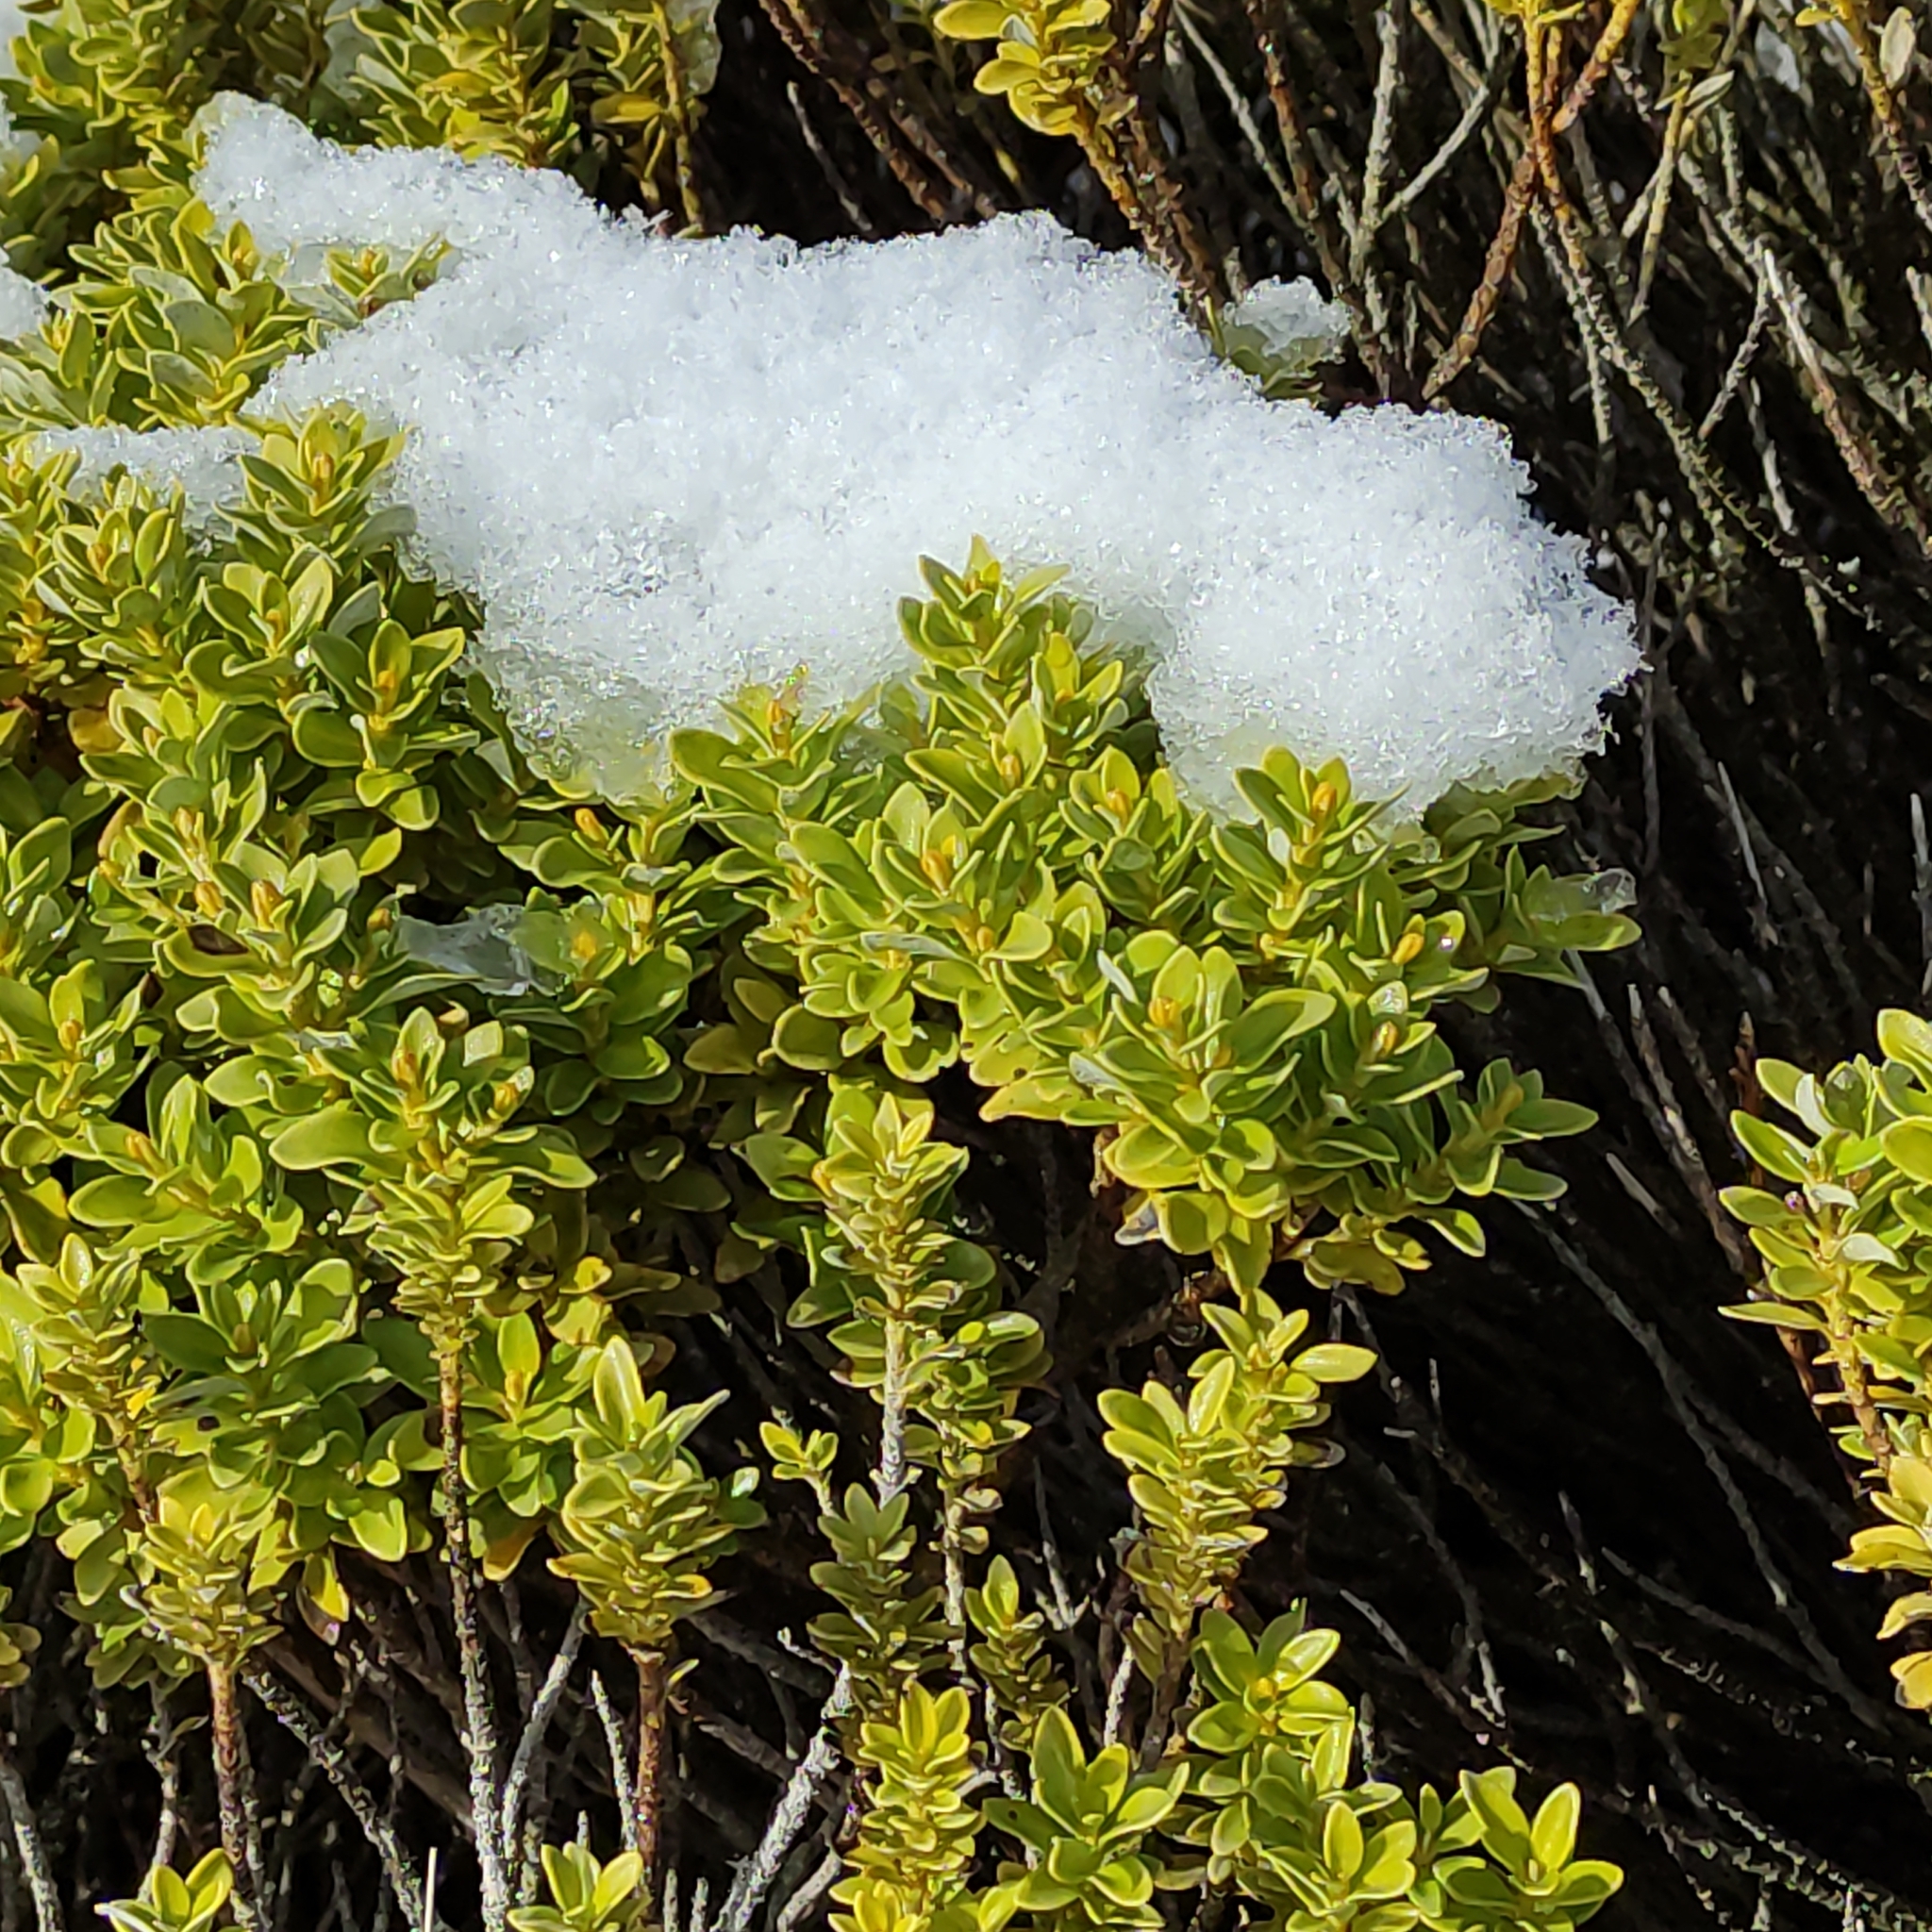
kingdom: Plantae
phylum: Tracheophyta
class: Magnoliopsida
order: Asterales
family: Asteraceae
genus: Olearia
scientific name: Olearia nummularifolia
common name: Sticky daisybush
